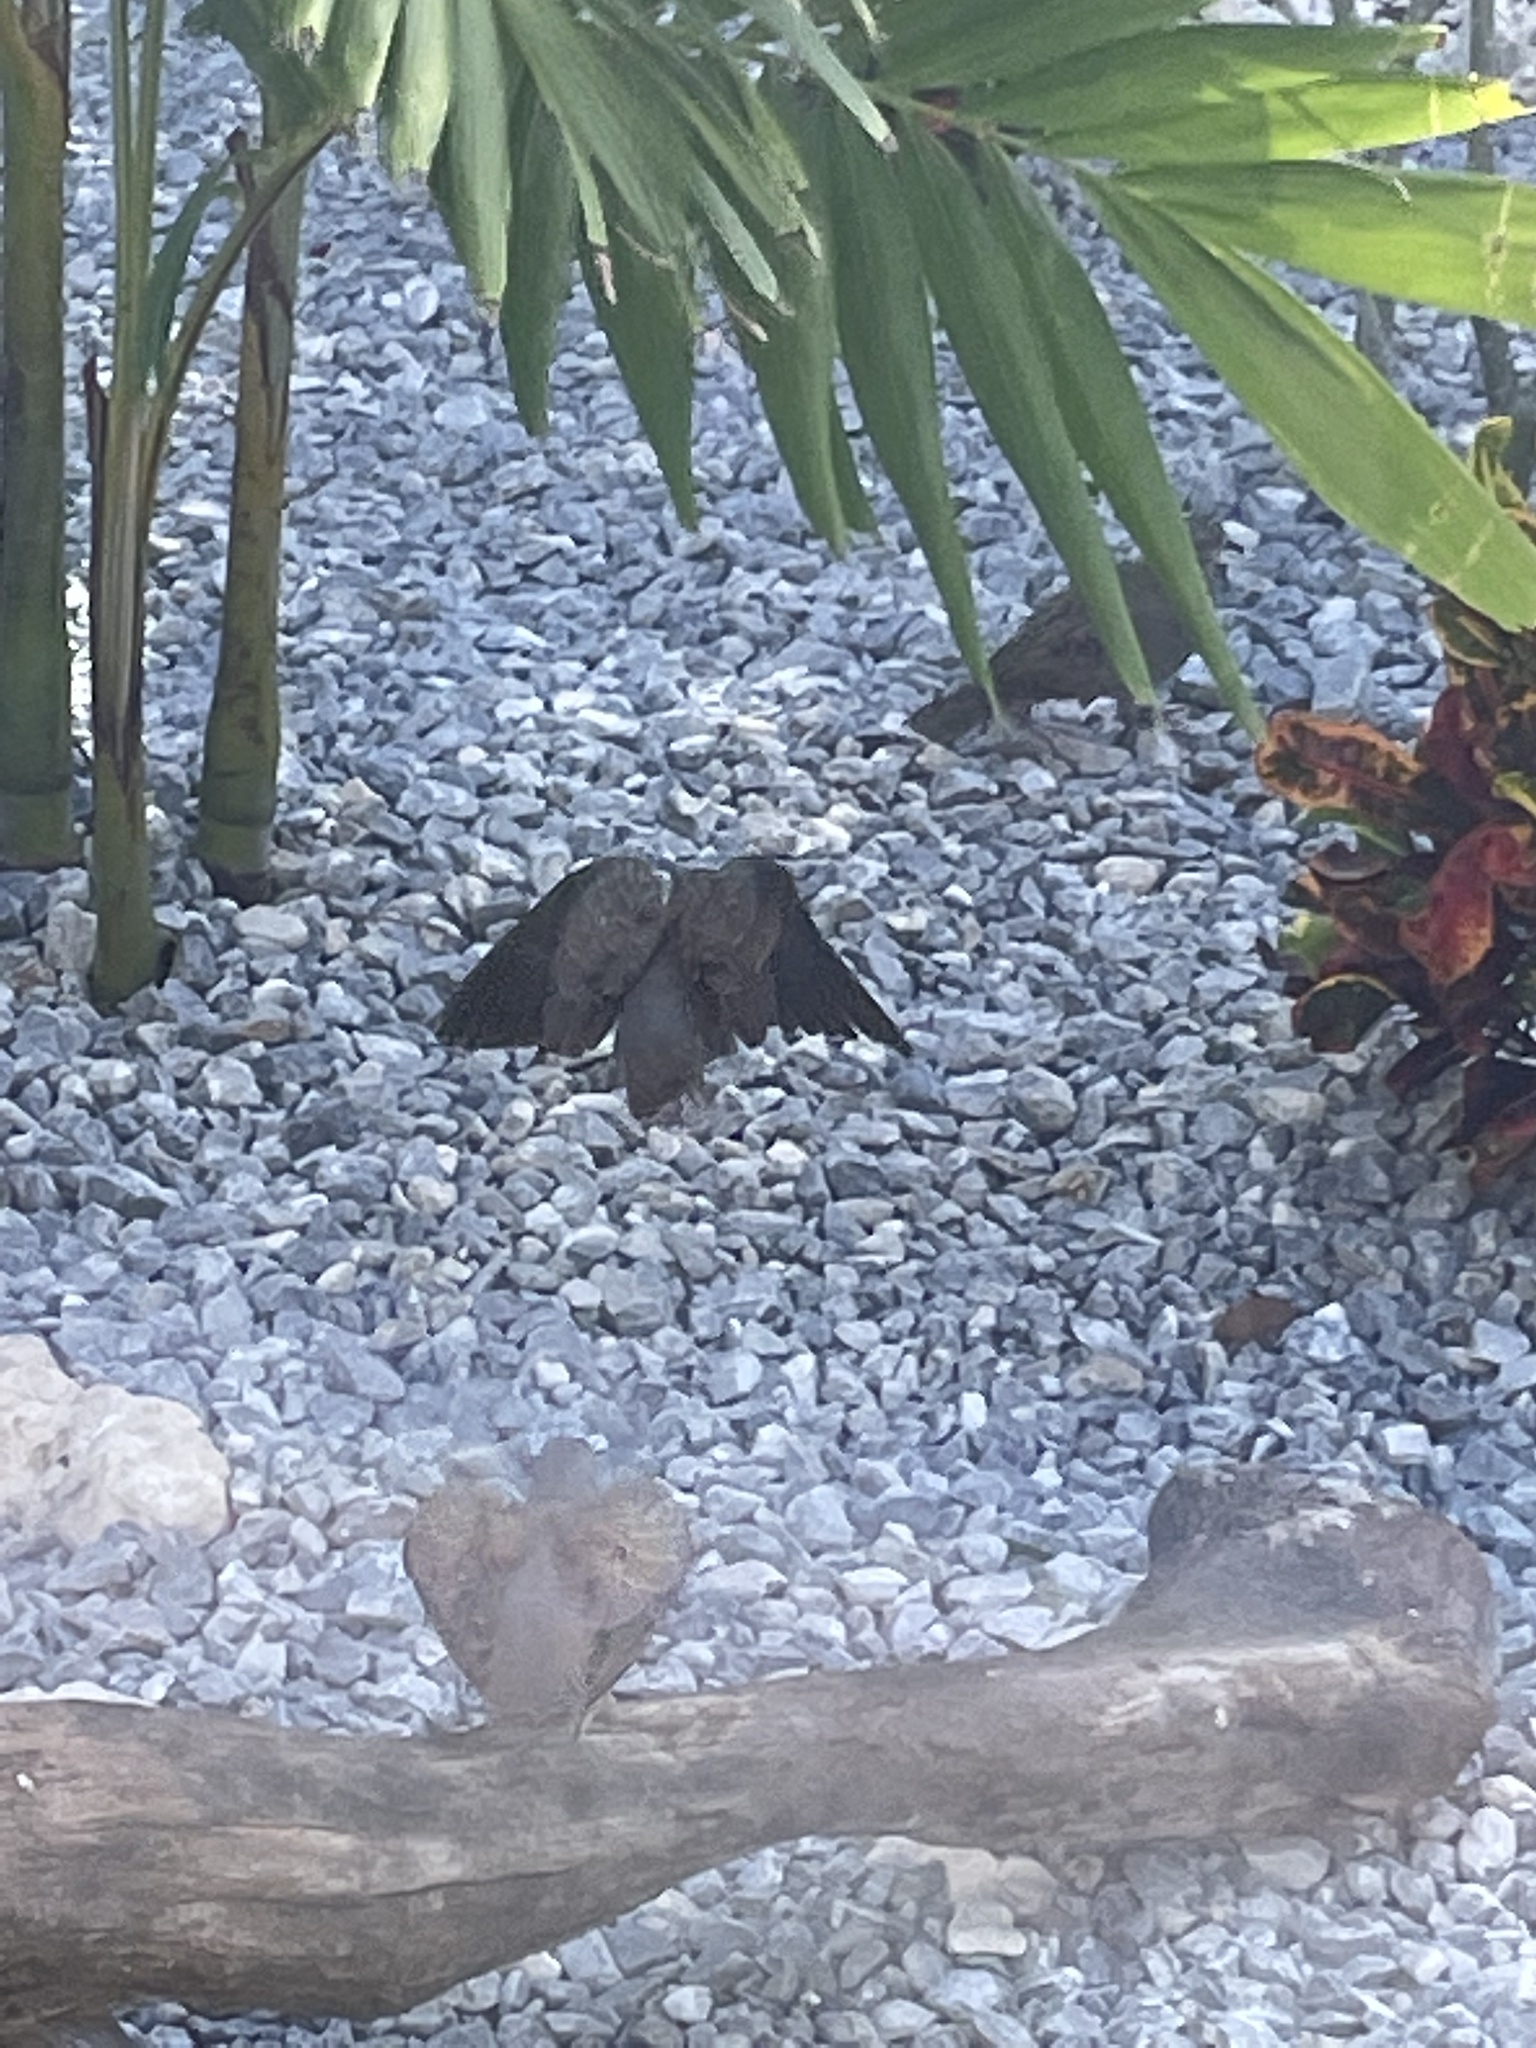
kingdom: Animalia
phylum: Chordata
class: Aves
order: Columbiformes
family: Columbidae
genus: Columbina
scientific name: Columbina passerina
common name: Common ground-dove
